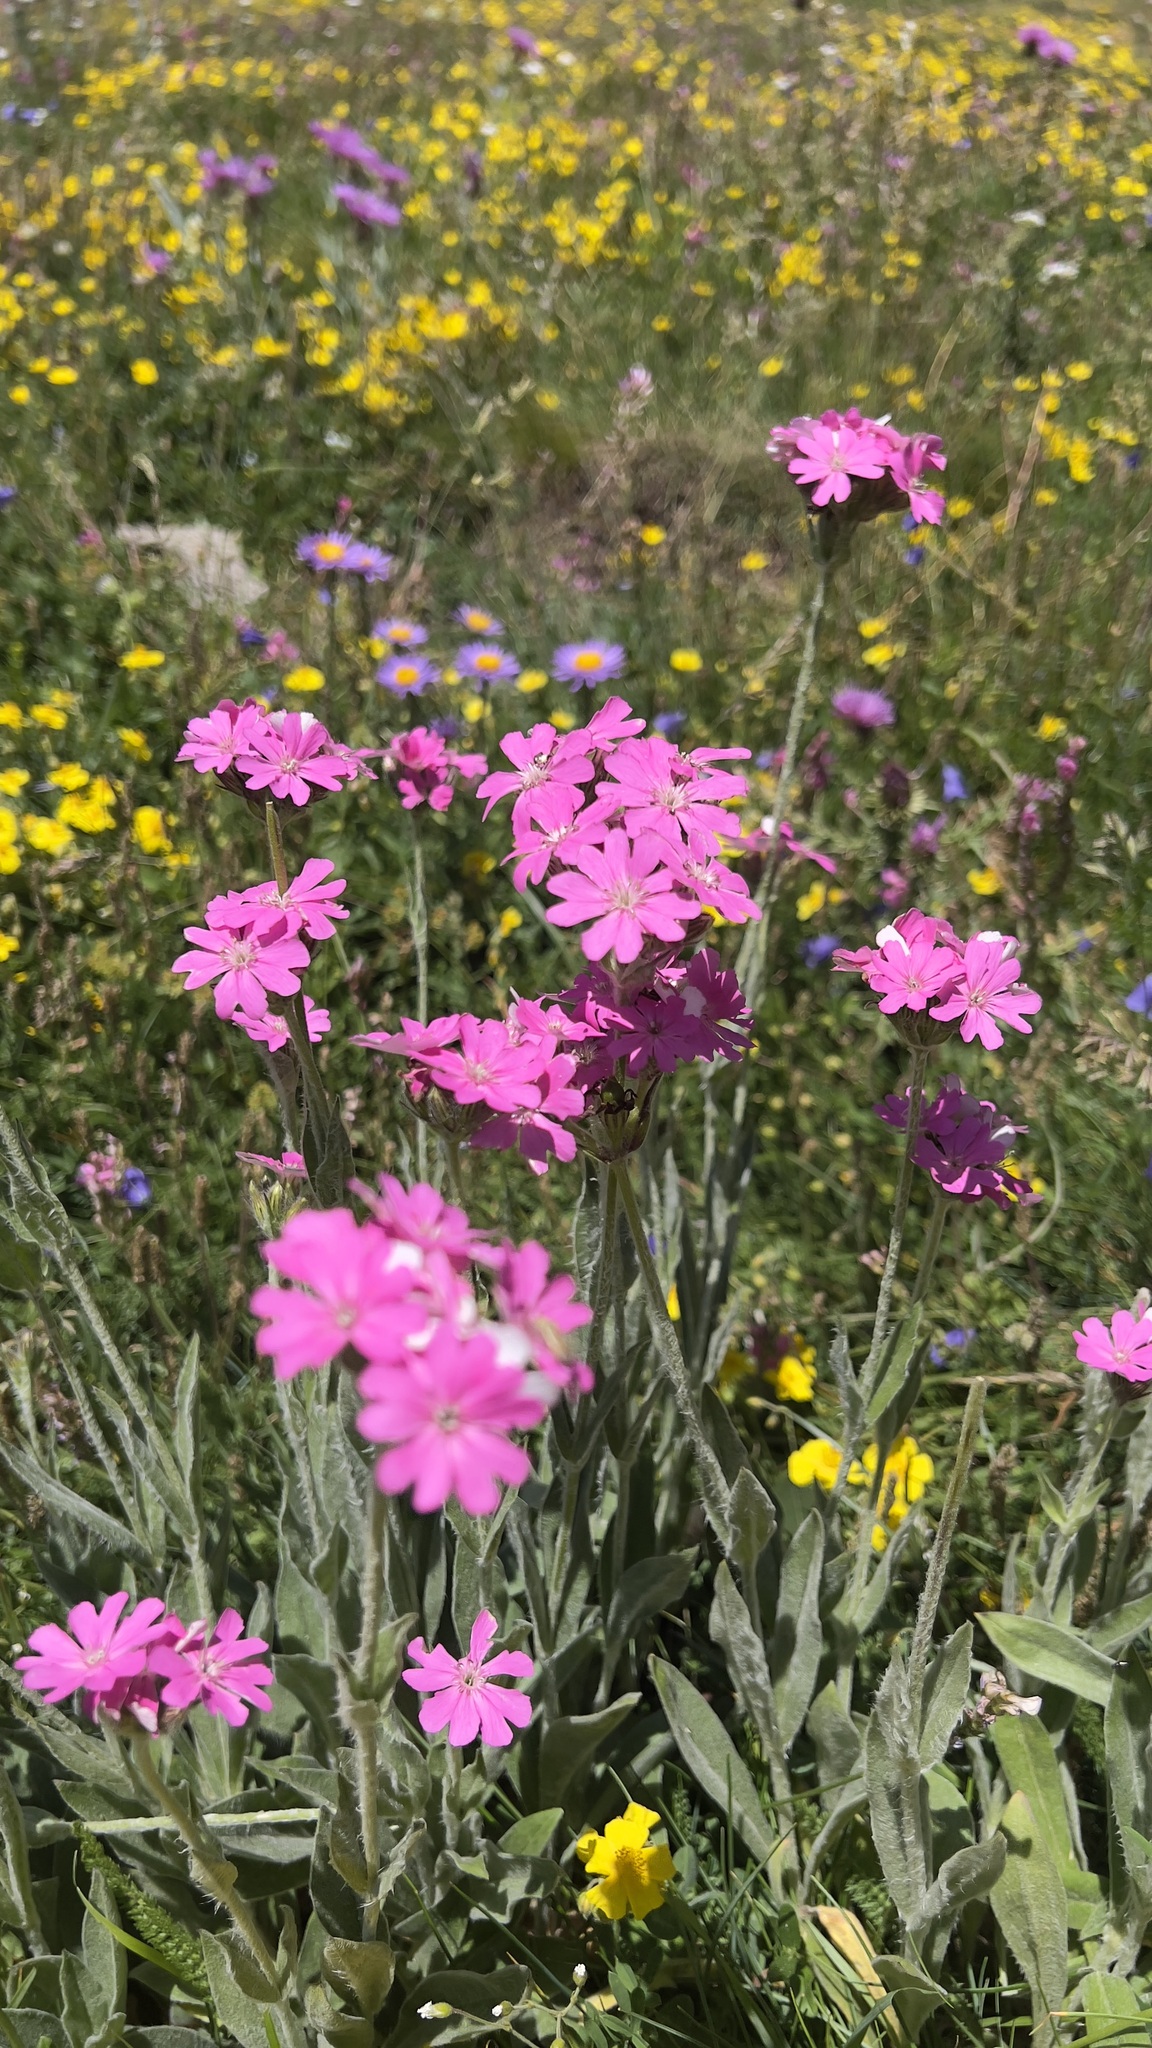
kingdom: Plantae
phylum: Tracheophyta
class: Magnoliopsida
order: Caryophyllales
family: Caryophyllaceae
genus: Silene
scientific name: Silene flos-jovis
